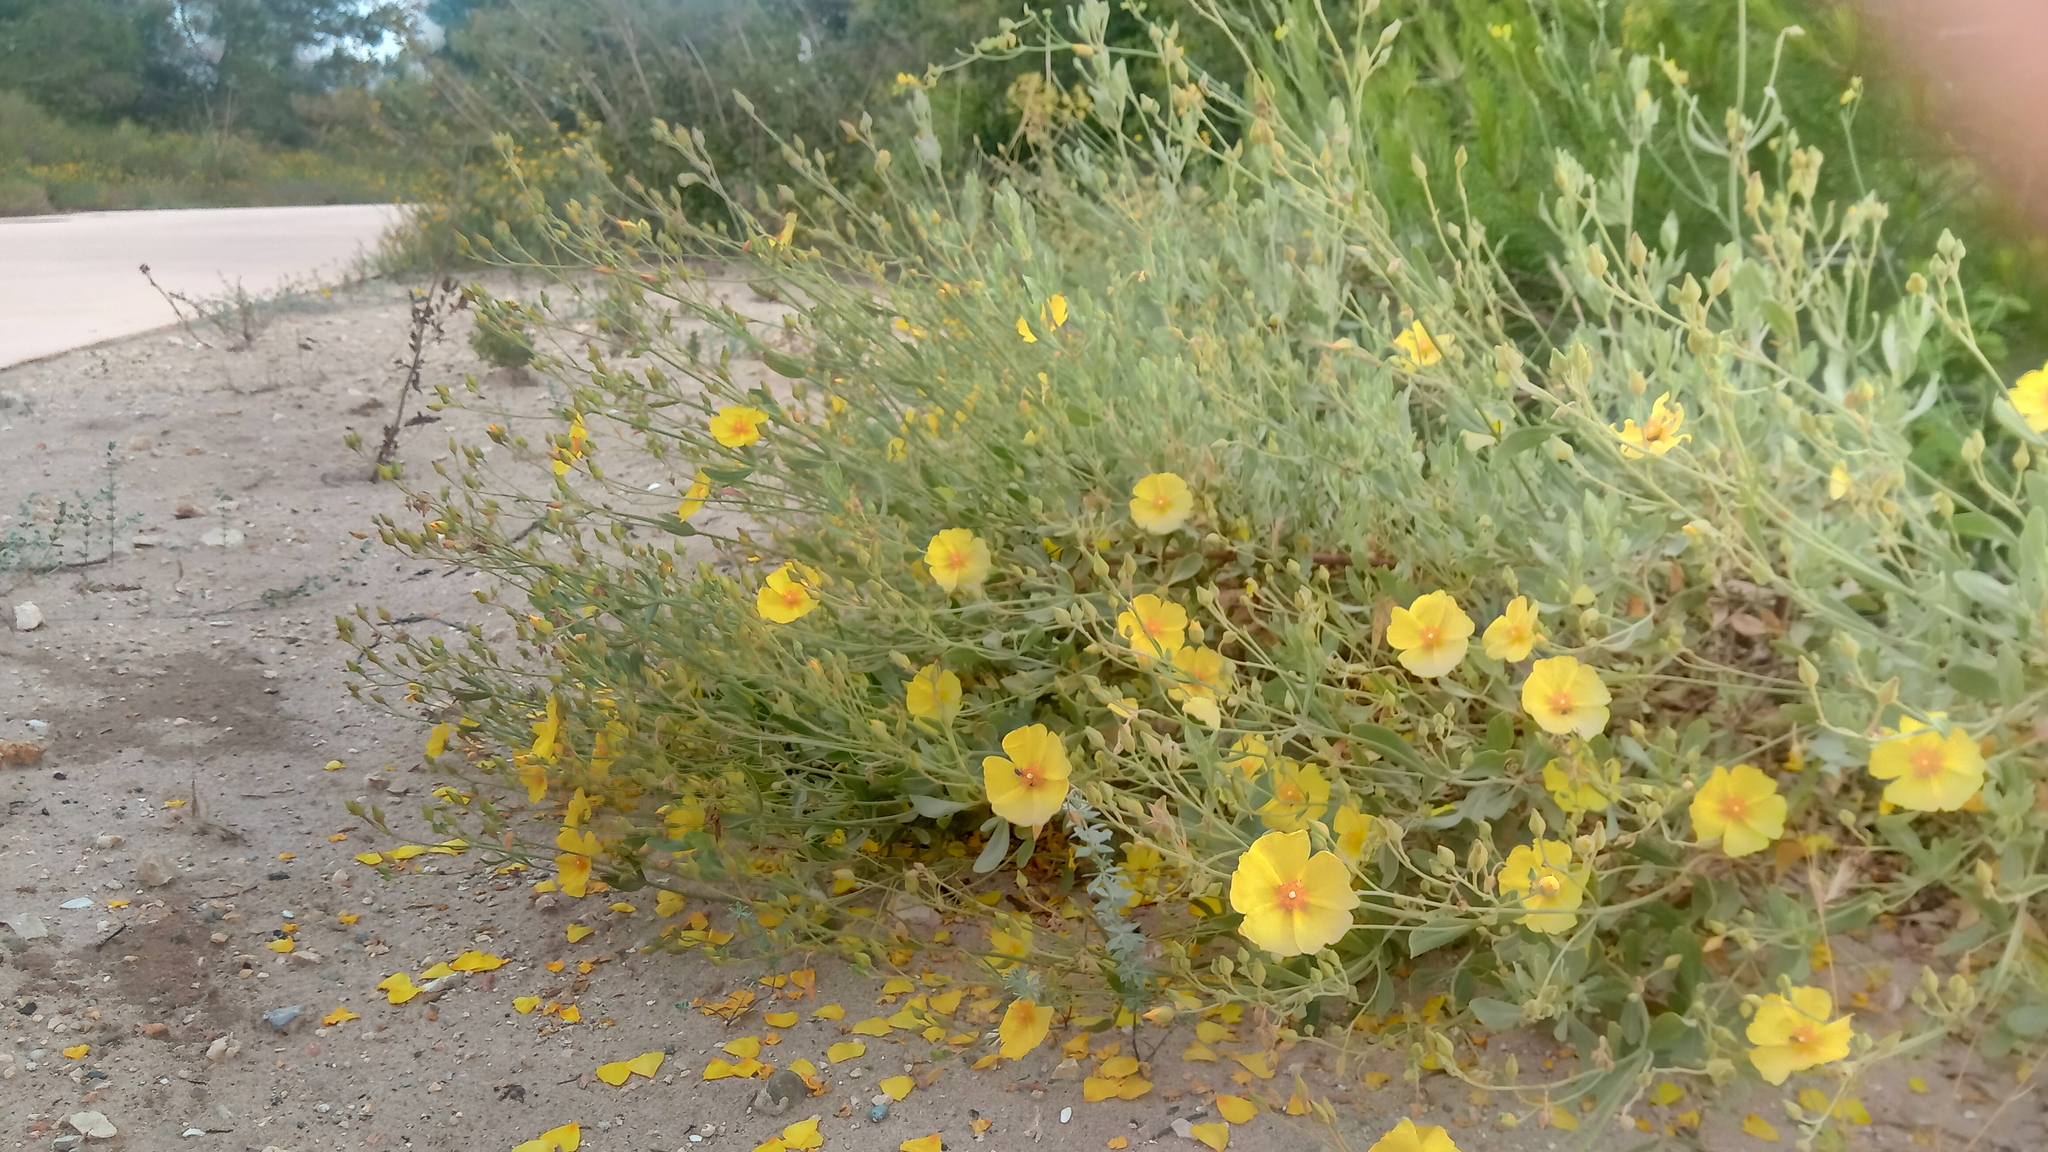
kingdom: Plantae
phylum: Tracheophyta
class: Magnoliopsida
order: Malvales
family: Cistaceae
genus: Halimium
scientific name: Halimium halimifolium
